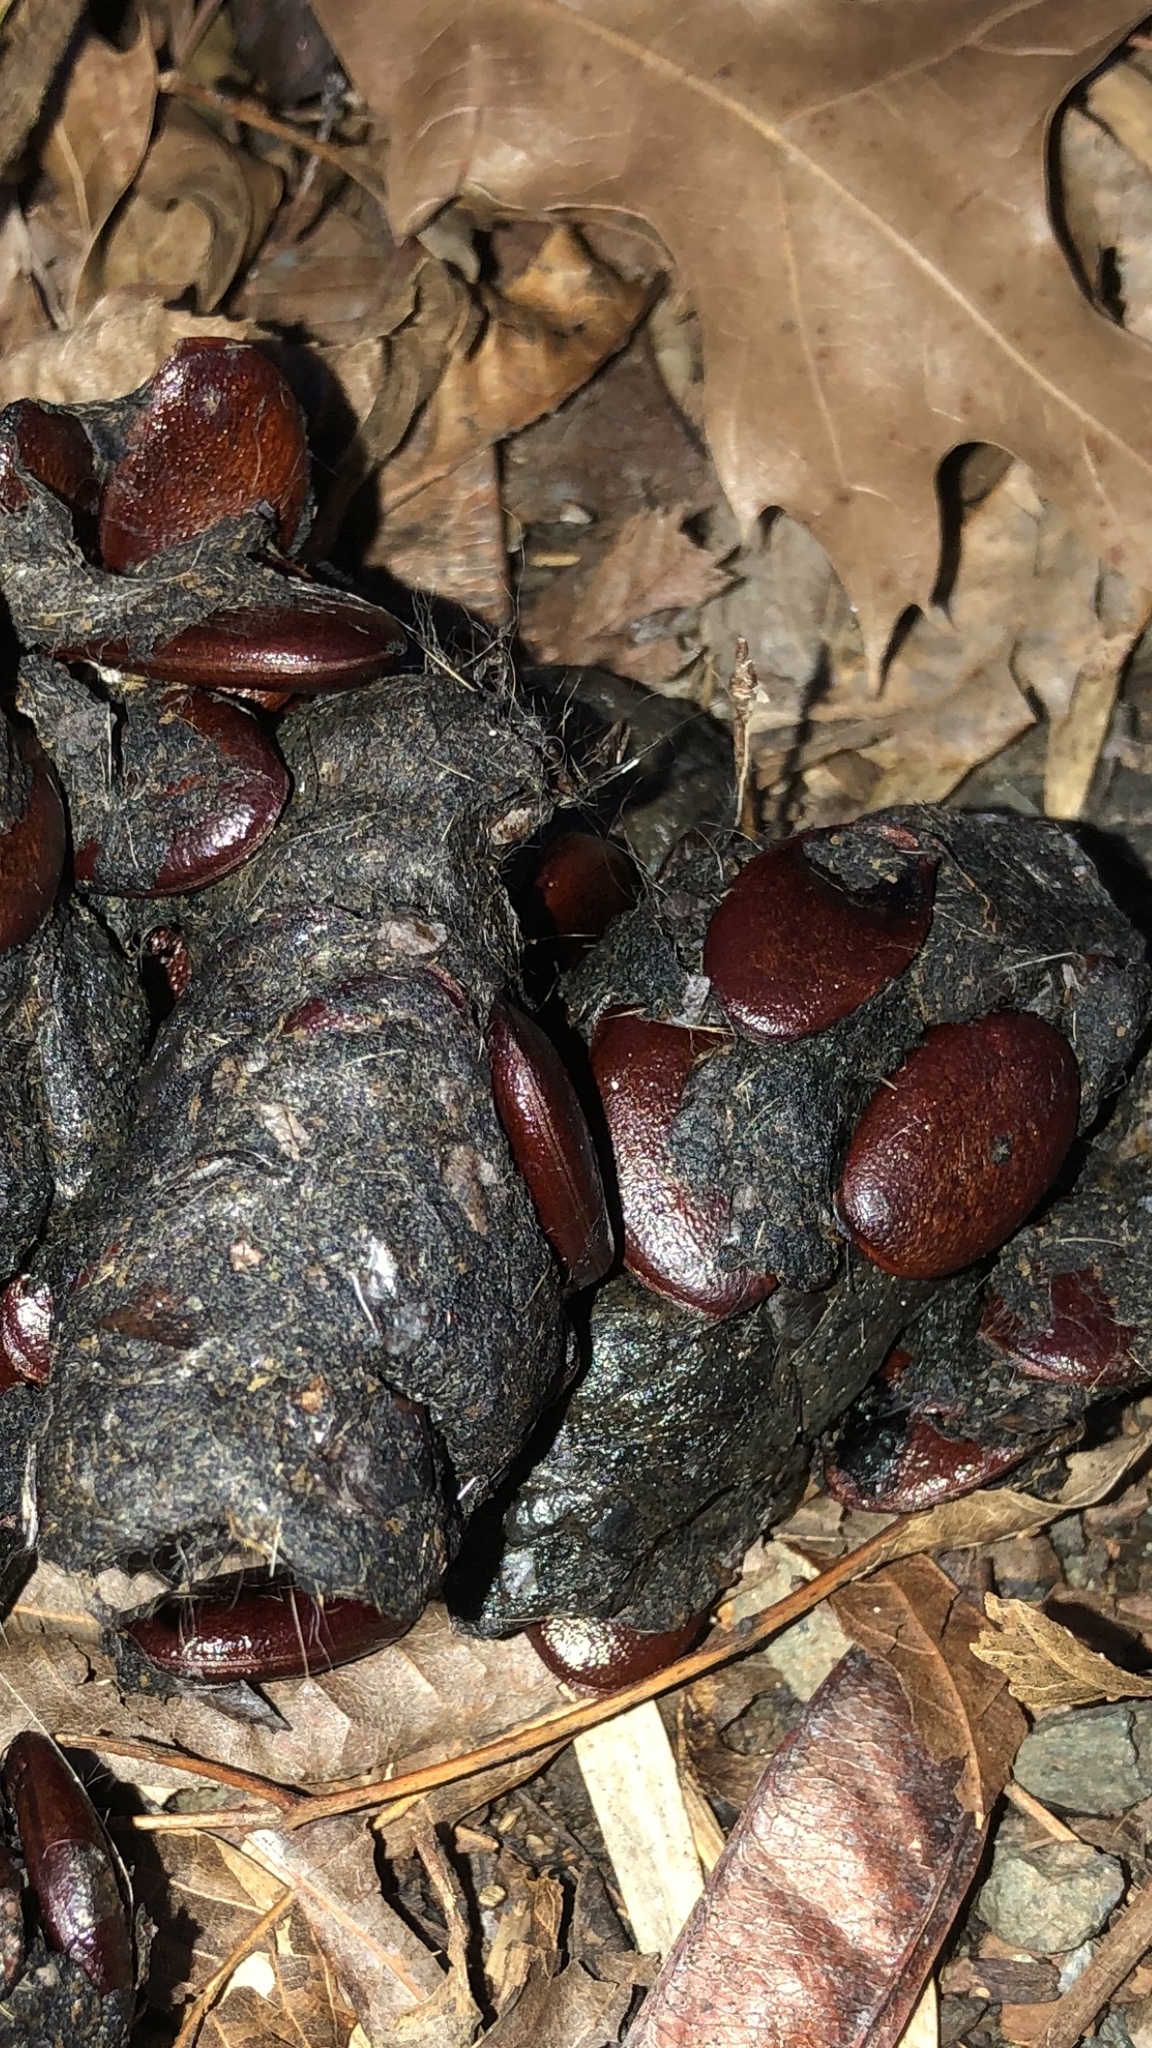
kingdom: Plantae
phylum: Tracheophyta
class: Magnoliopsida
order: Ericales
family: Ebenaceae
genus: Diospyros
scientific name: Diospyros virginiana
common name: Persimmon
